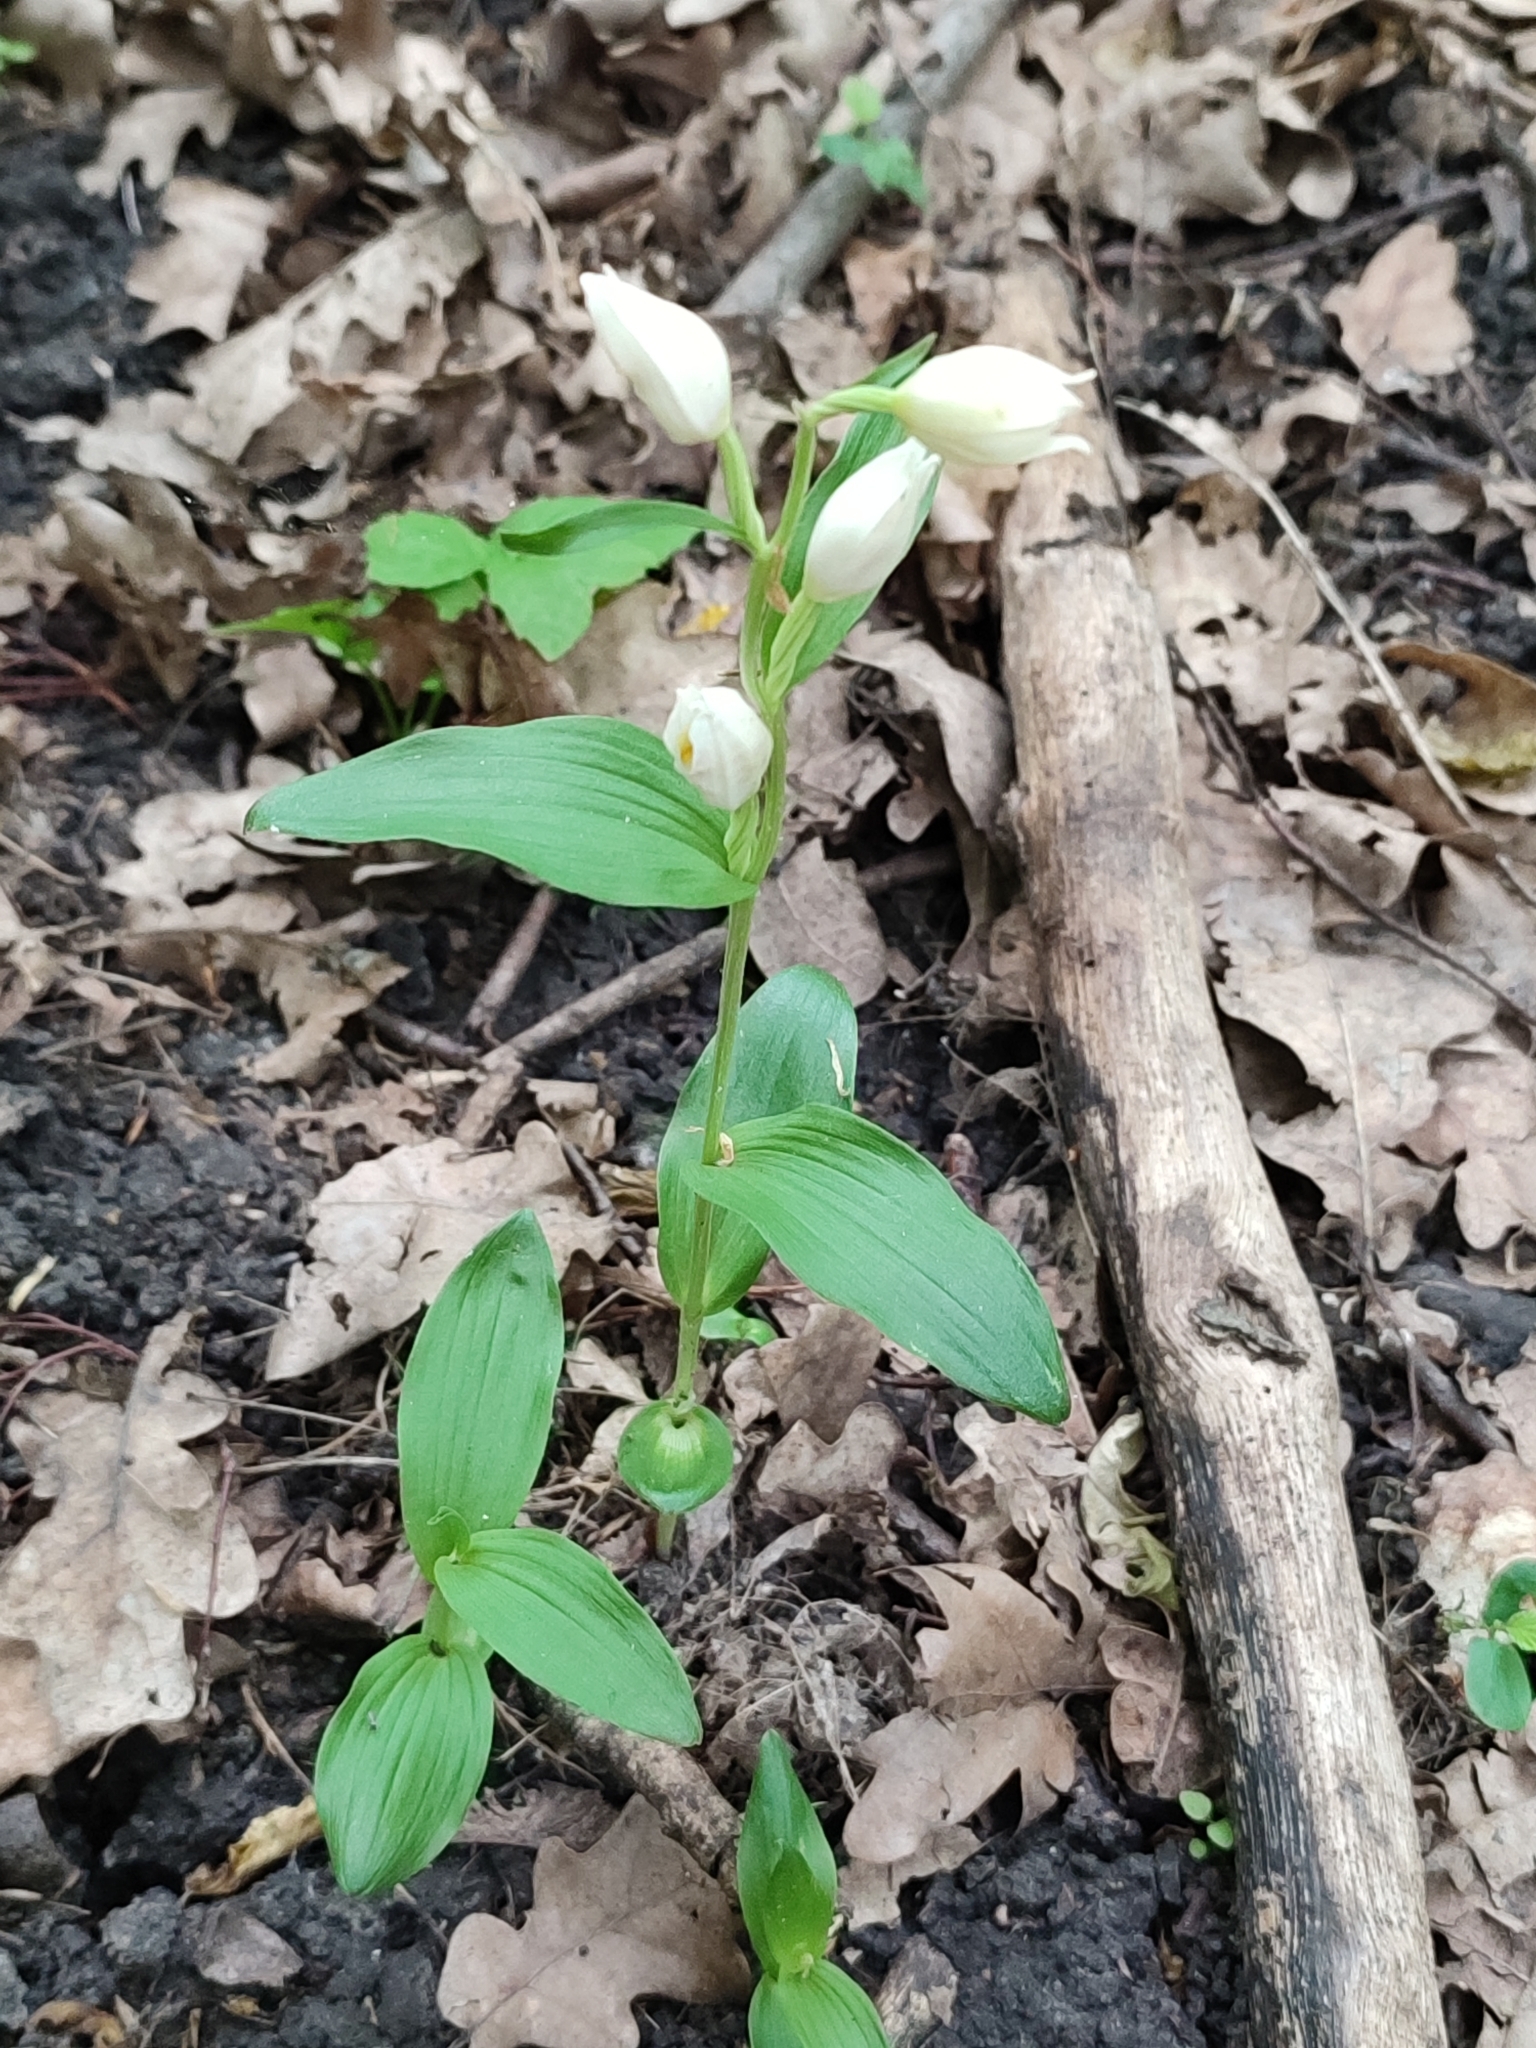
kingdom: Plantae
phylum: Tracheophyta
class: Liliopsida
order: Asparagales
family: Orchidaceae
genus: Cephalanthera
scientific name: Cephalanthera damasonium
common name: White helleborine
